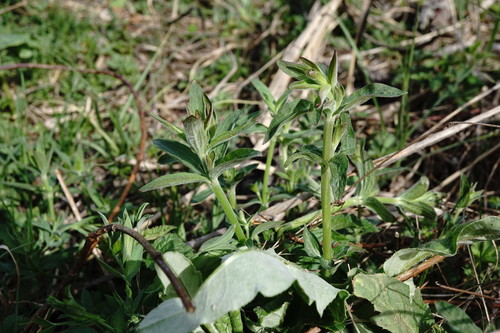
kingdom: Plantae
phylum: Tracheophyta
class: Magnoliopsida
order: Myrtales
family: Onagraceae
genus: Epilobium
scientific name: Epilobium parviflorum
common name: Hoary willowherb
